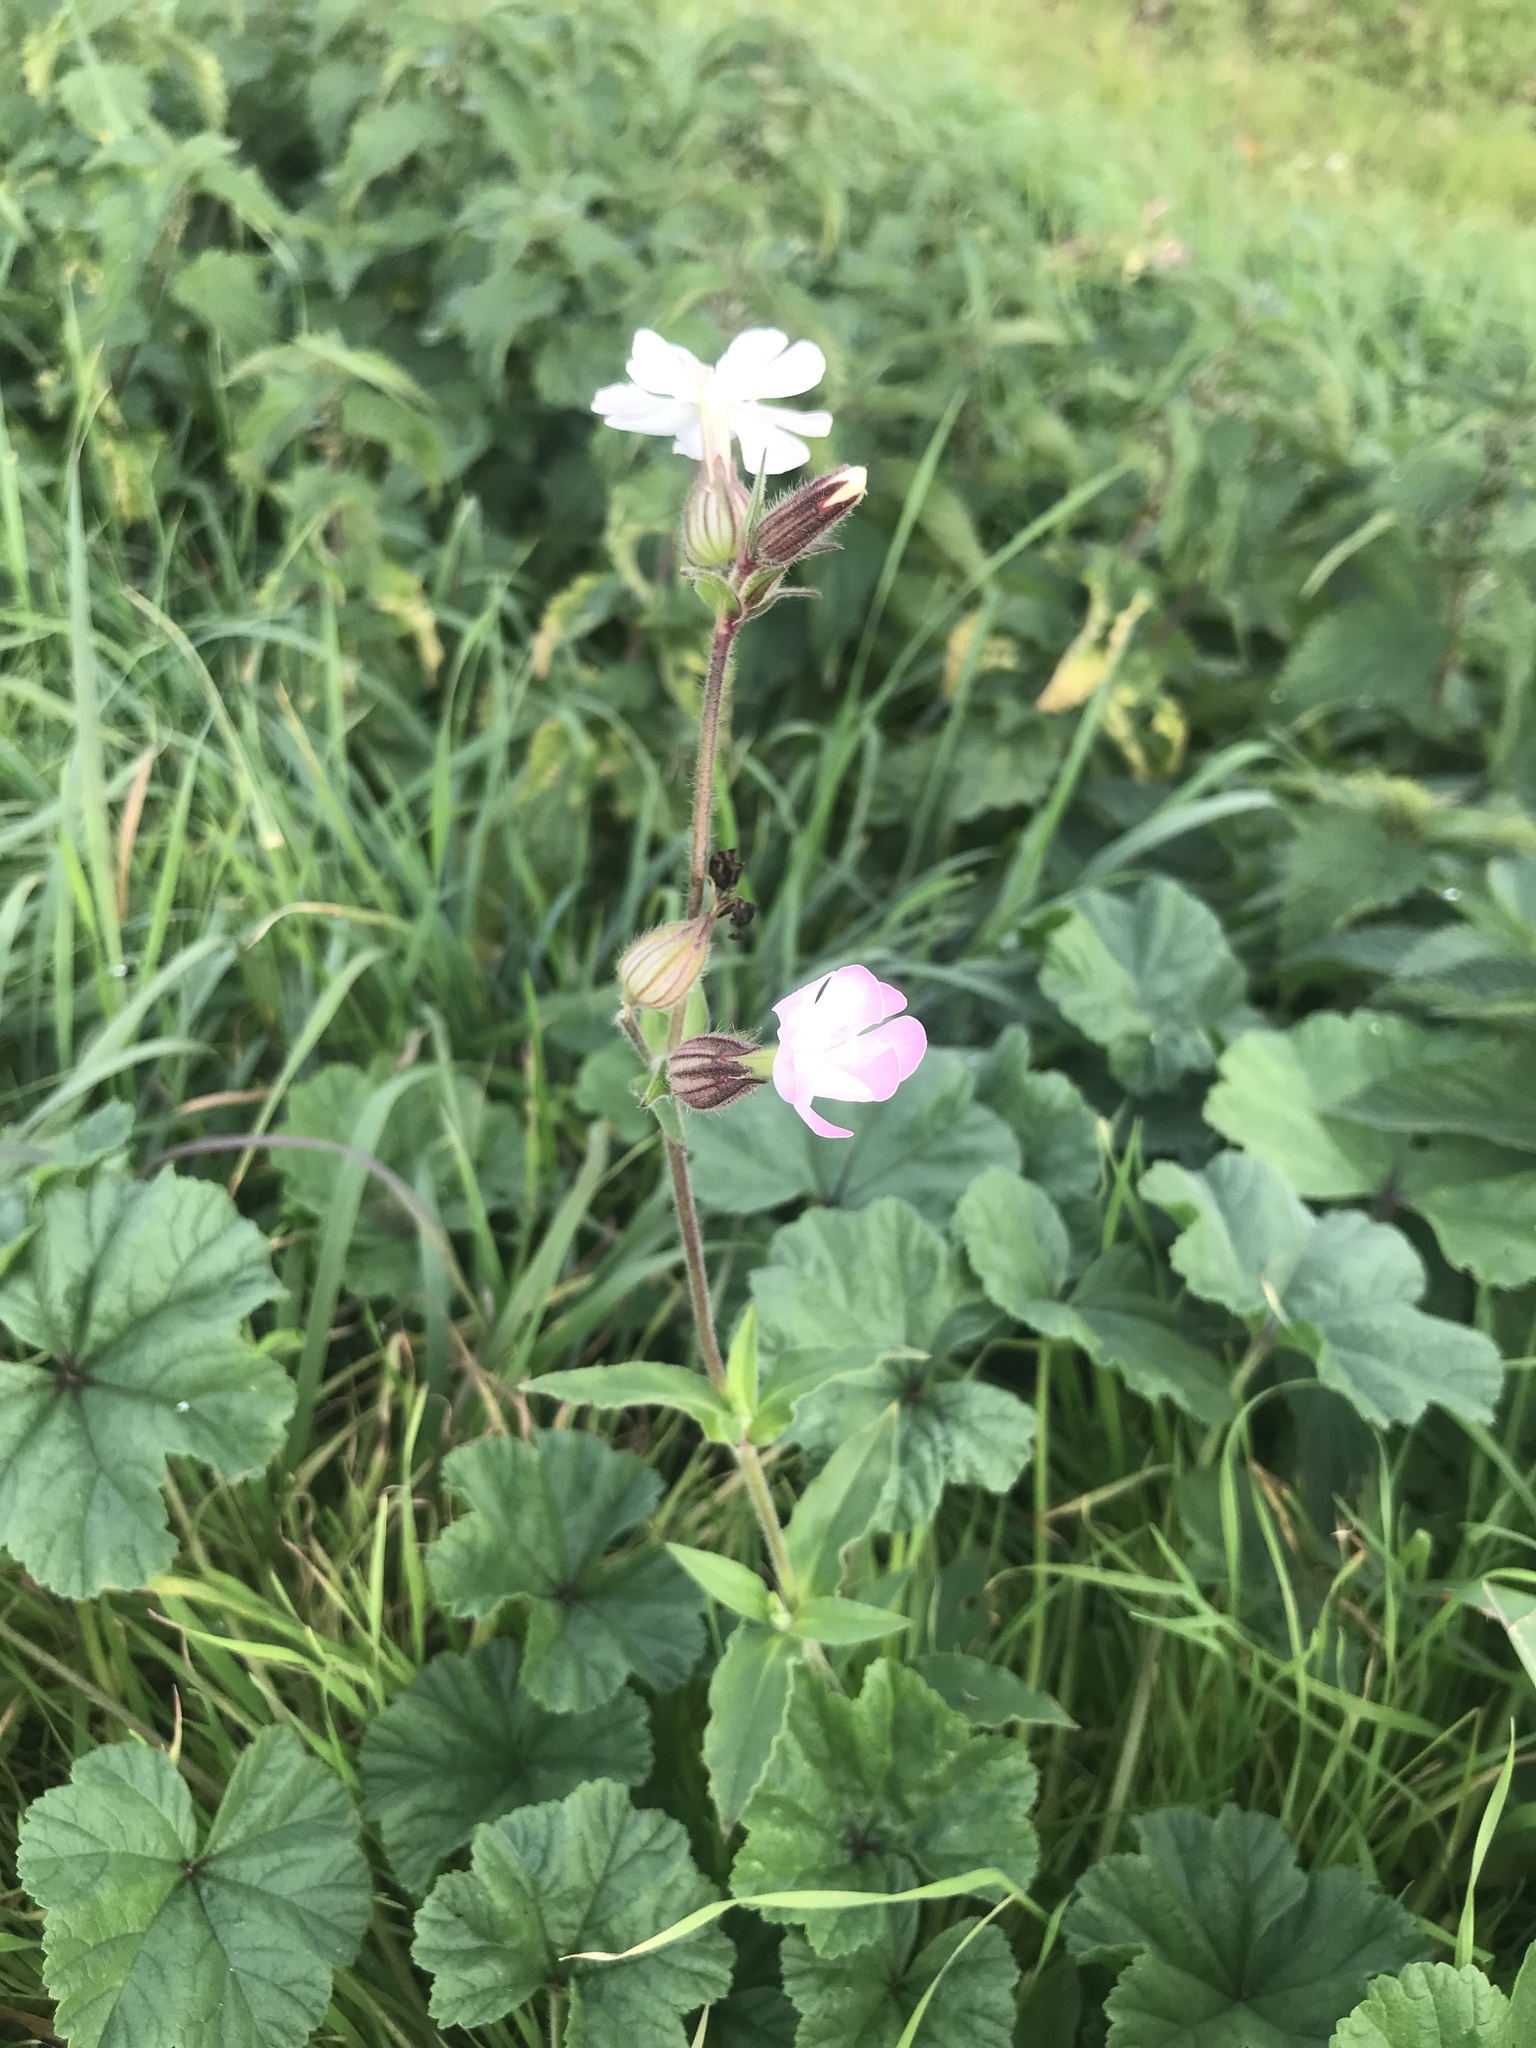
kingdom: Plantae
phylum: Tracheophyta
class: Magnoliopsida
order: Caryophyllales
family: Caryophyllaceae
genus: Silene
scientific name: Silene latifolia
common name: White campion
